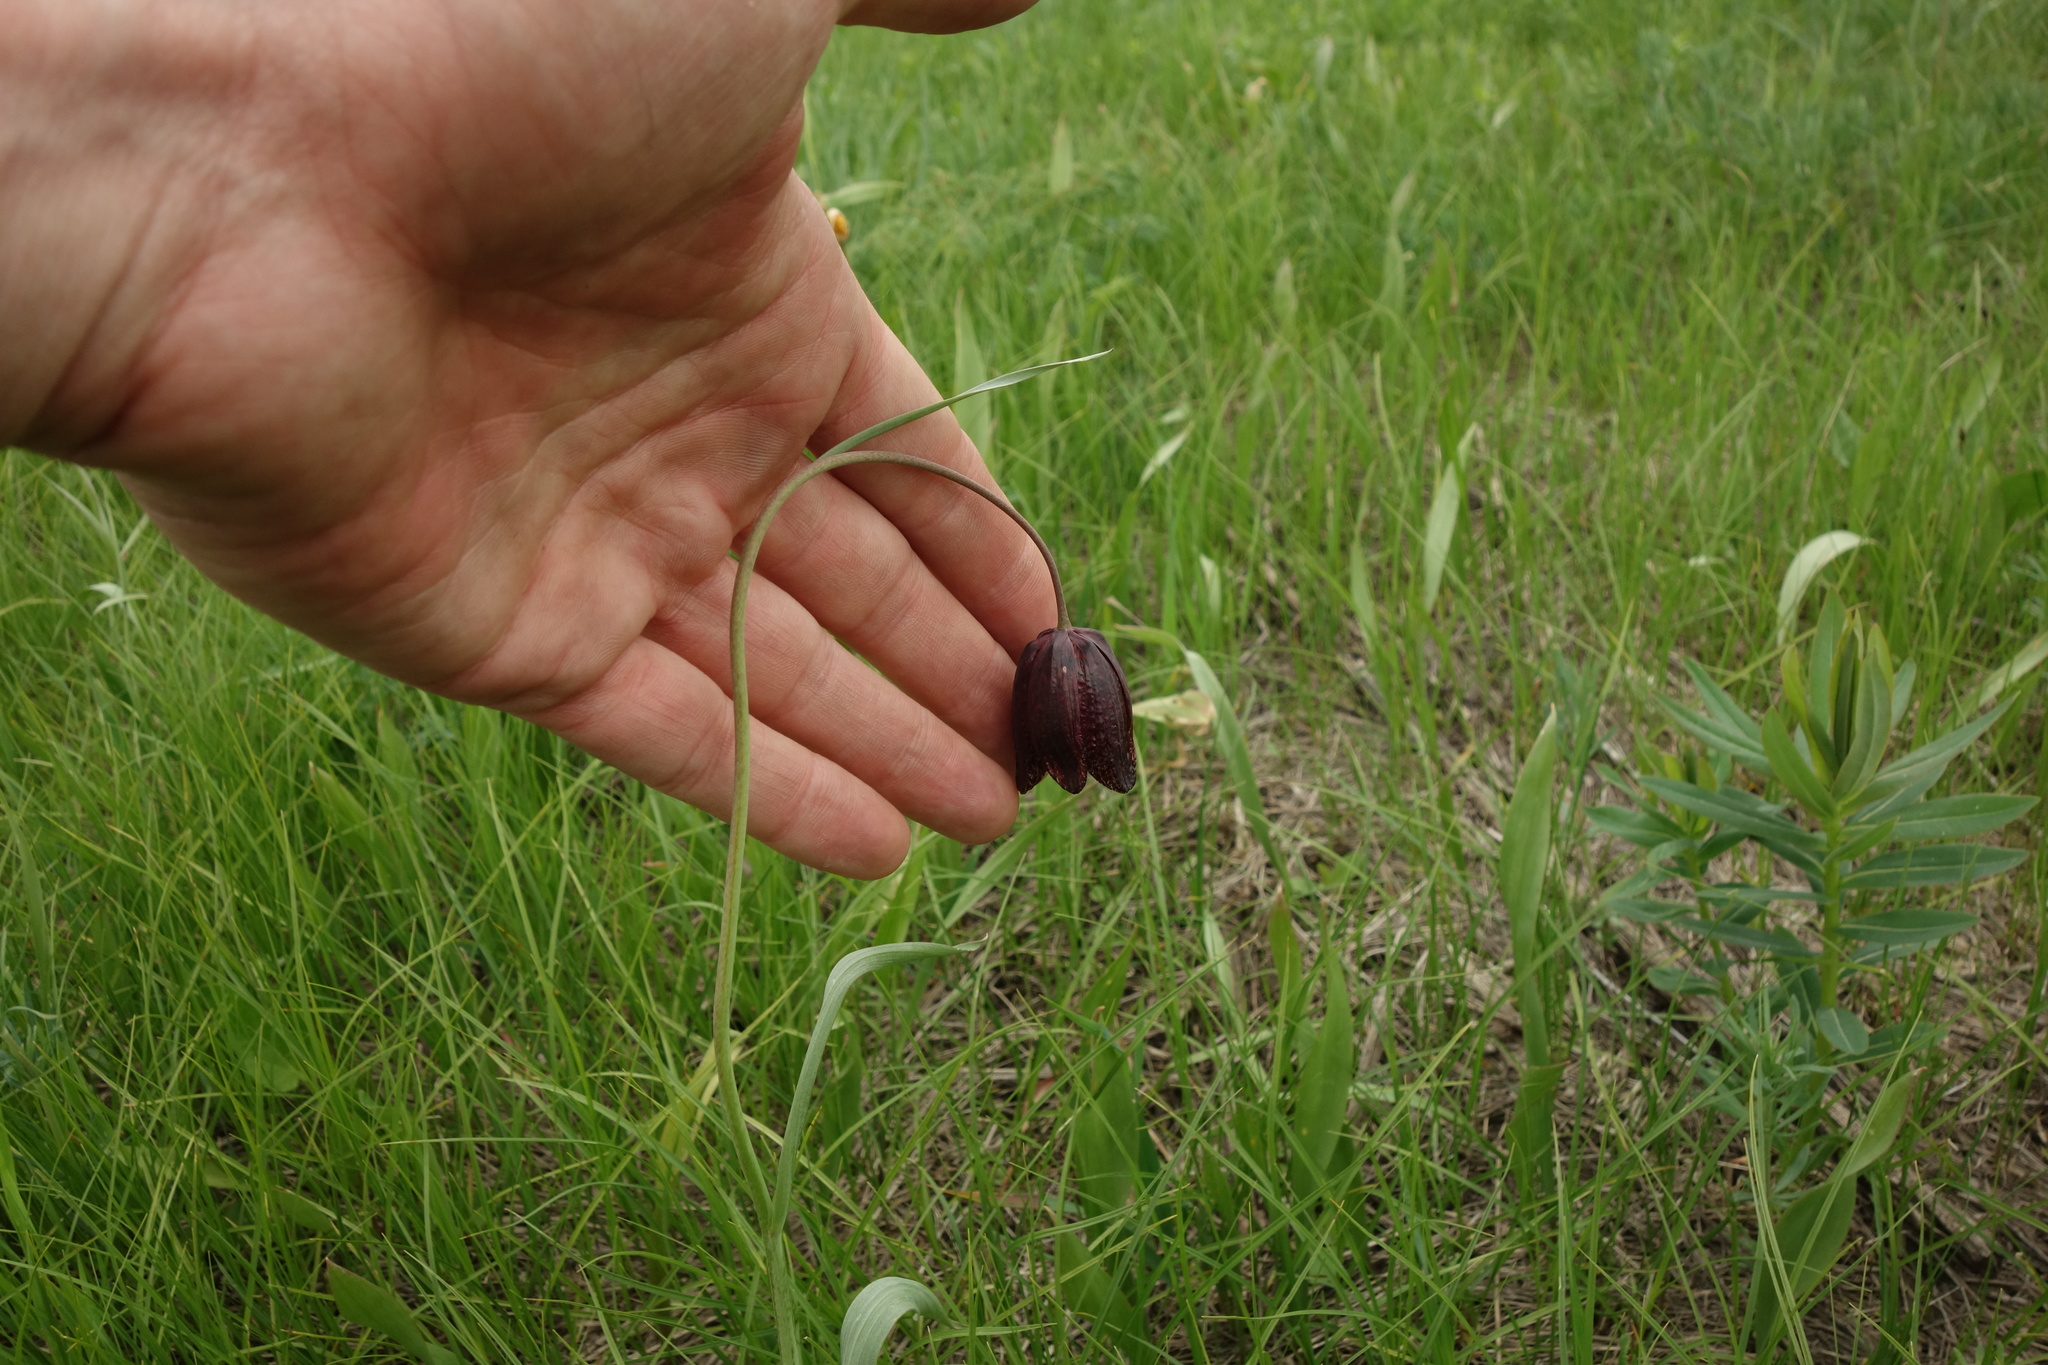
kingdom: Plantae
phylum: Tracheophyta
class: Liliopsida
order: Liliales
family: Liliaceae
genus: Fritillaria
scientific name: Fritillaria meleagroides
